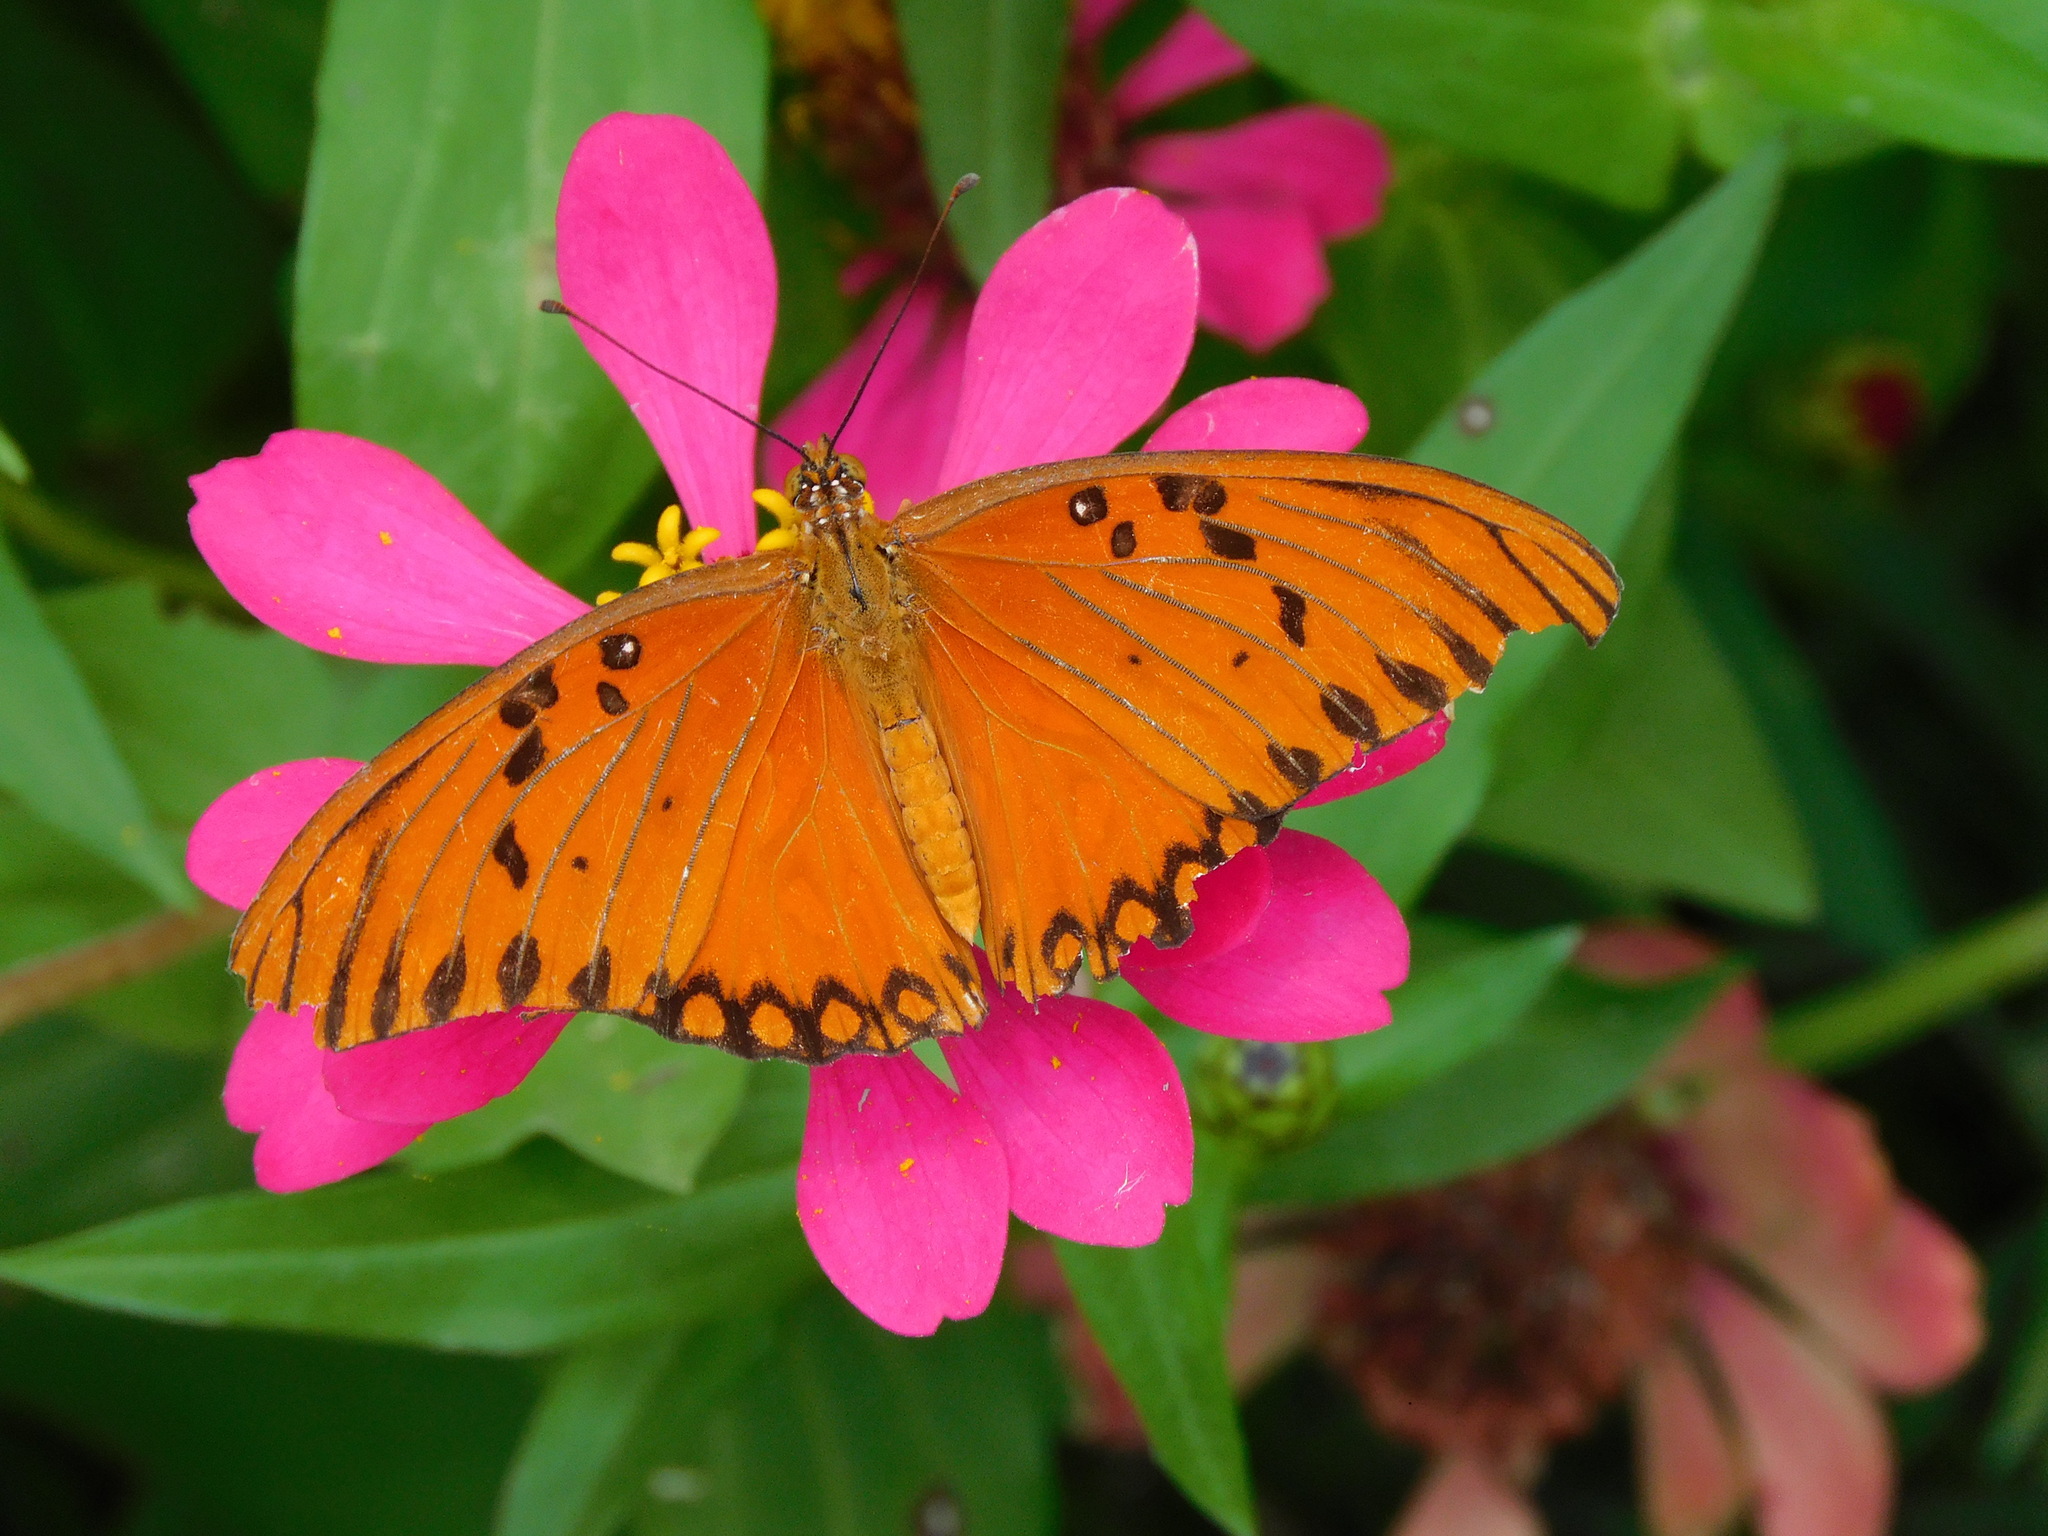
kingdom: Animalia
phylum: Arthropoda
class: Insecta
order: Lepidoptera
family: Nymphalidae
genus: Dione
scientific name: Dione vanillae
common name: Gulf fritillary
